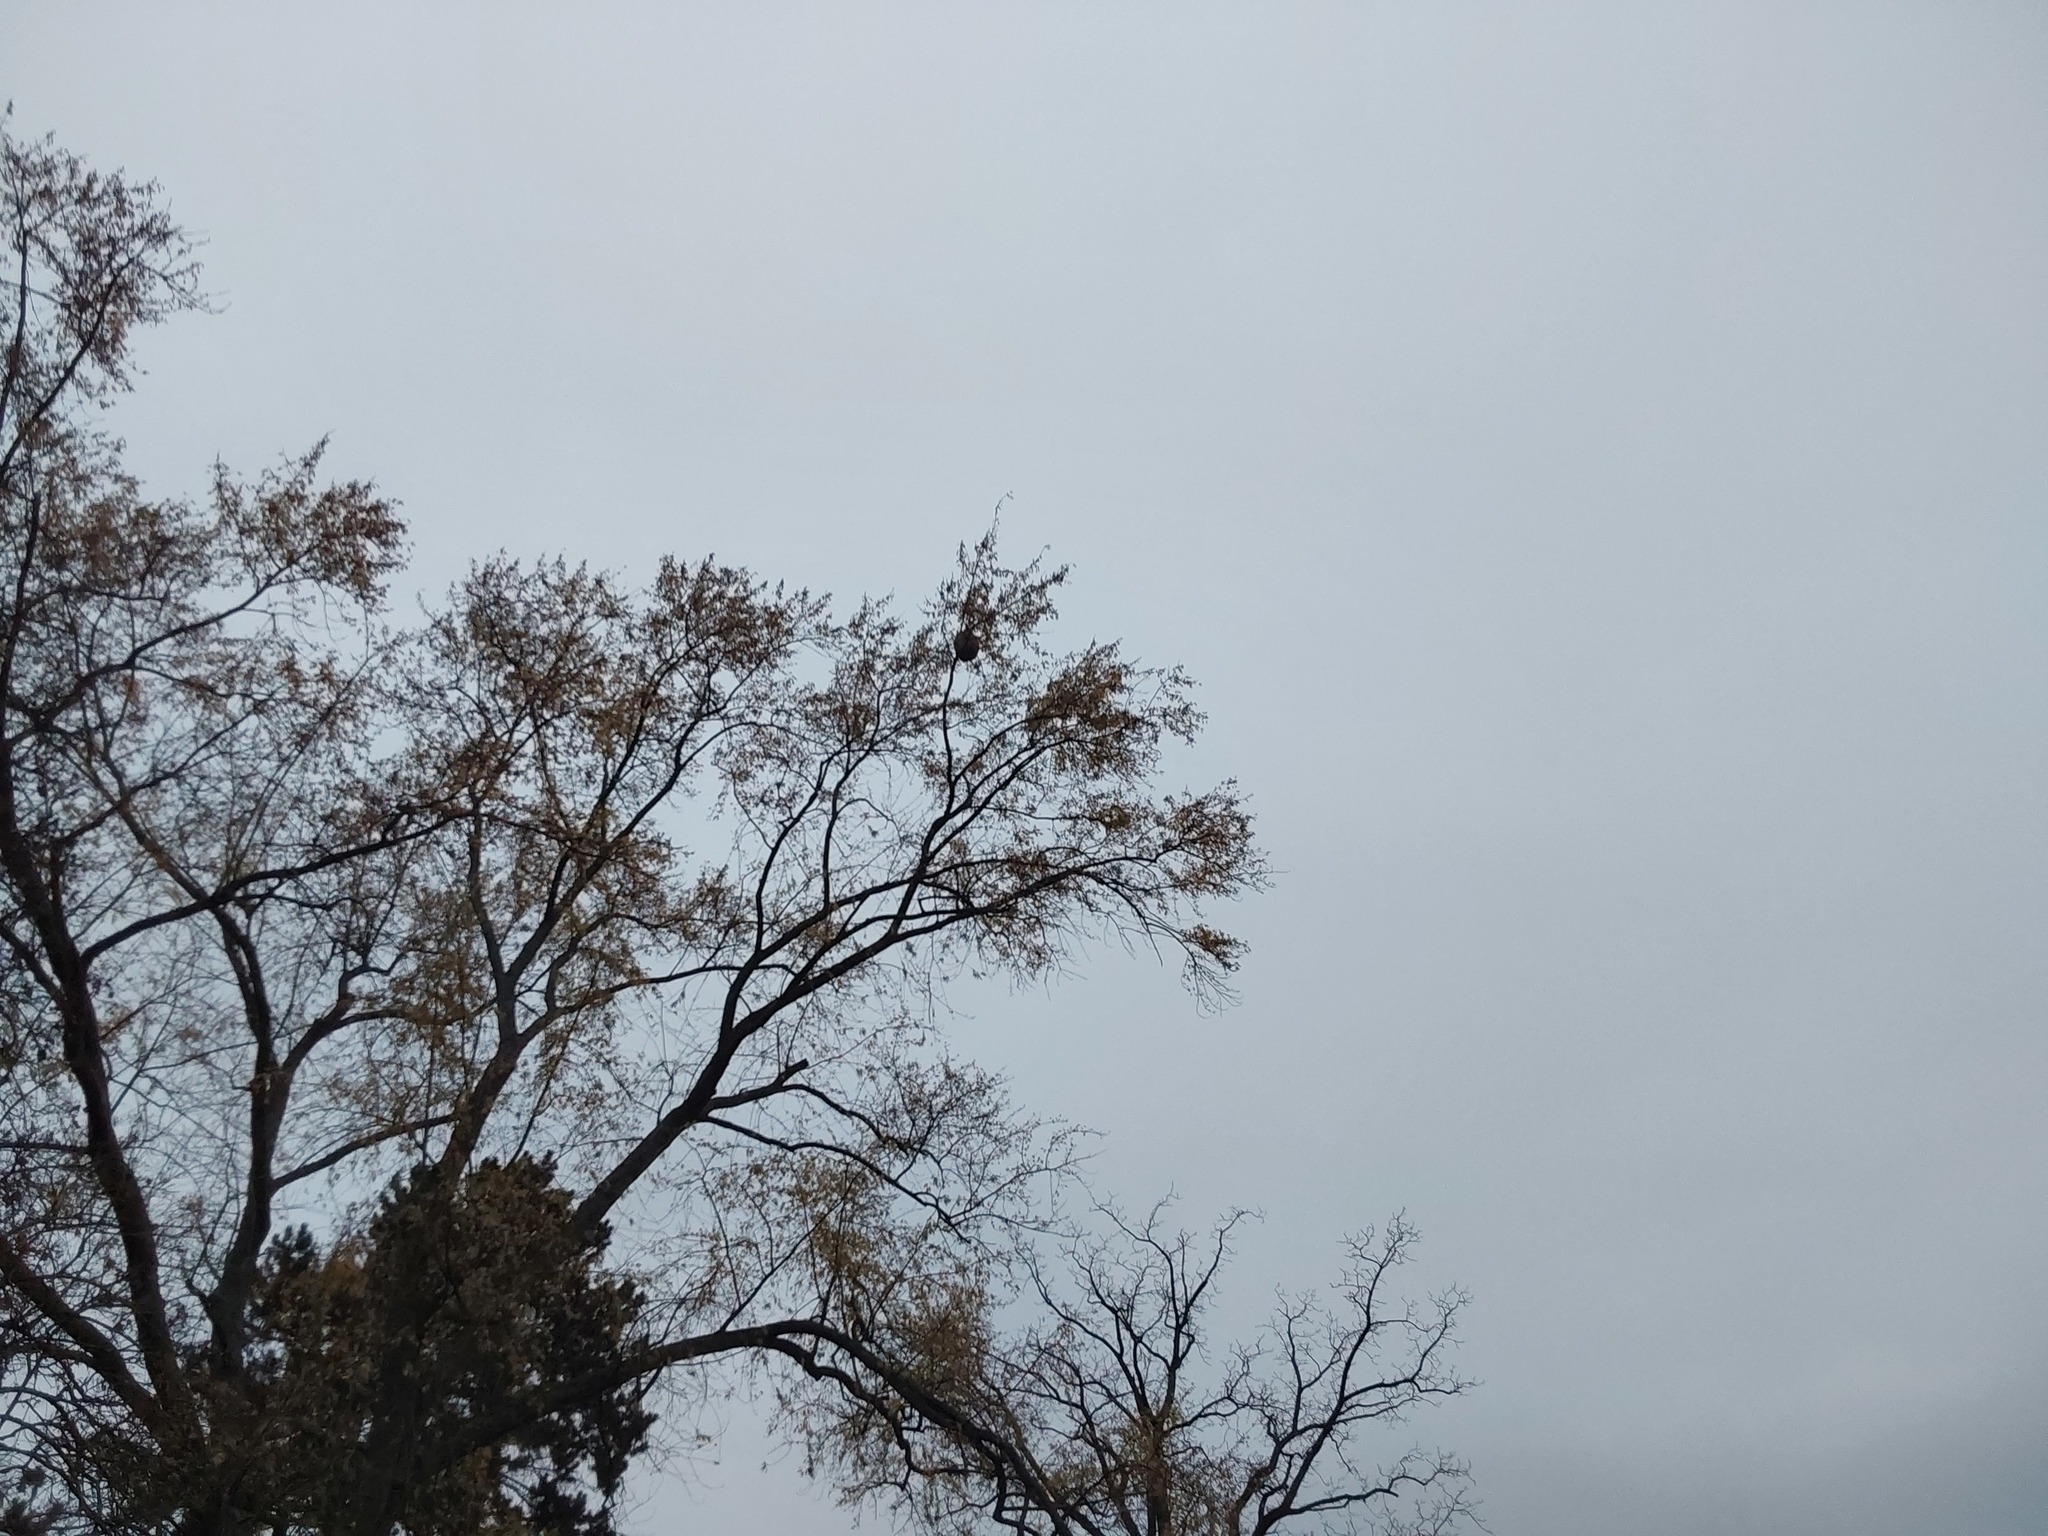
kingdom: Animalia
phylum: Arthropoda
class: Insecta
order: Hymenoptera
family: Vespidae
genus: Vespa
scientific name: Vespa velutina
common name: Asian hornet
